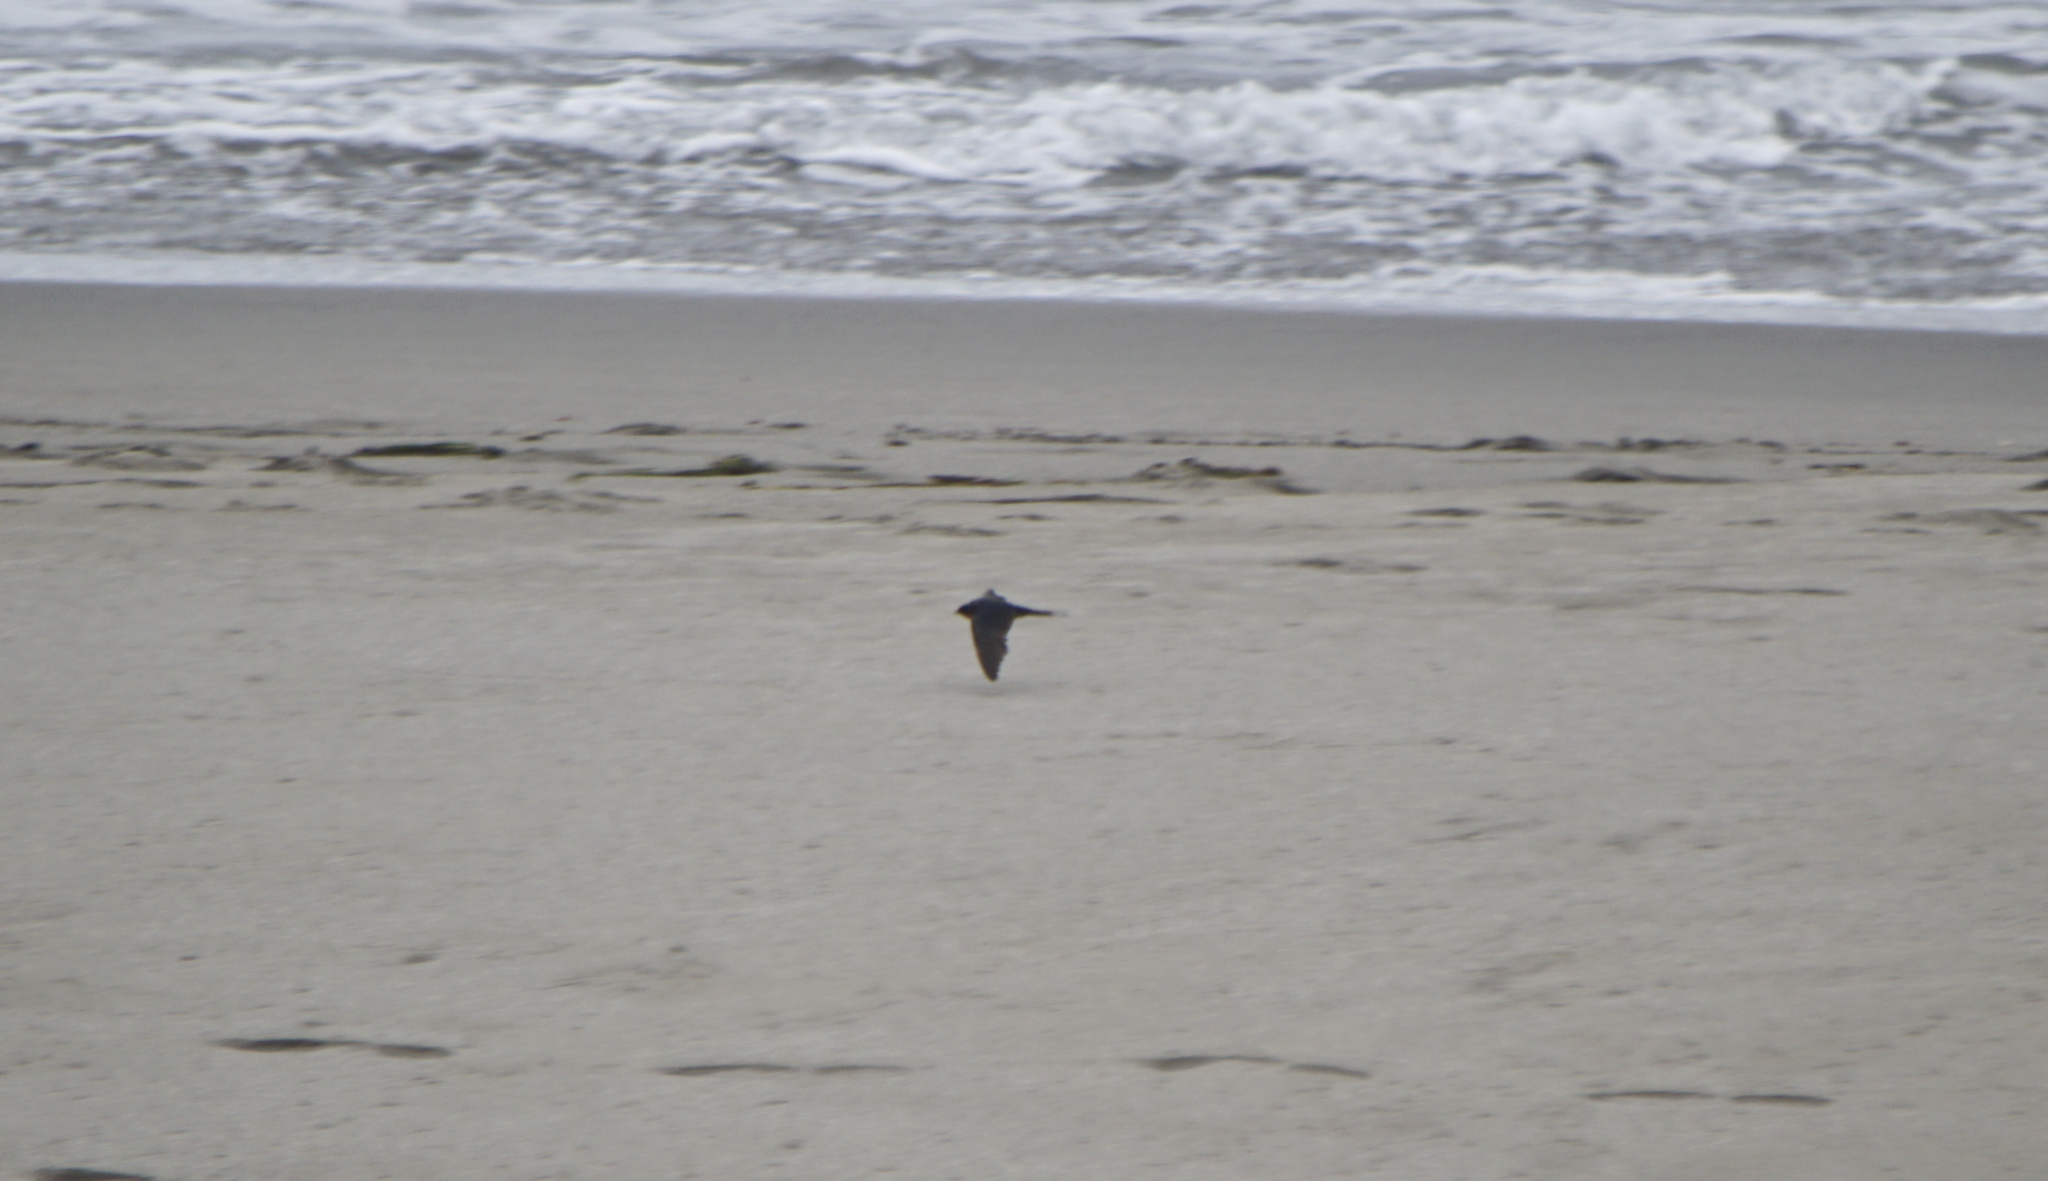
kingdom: Animalia
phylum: Chordata
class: Aves
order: Passeriformes
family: Hirundinidae
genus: Hirundo
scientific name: Hirundo rustica
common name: Barn swallow
